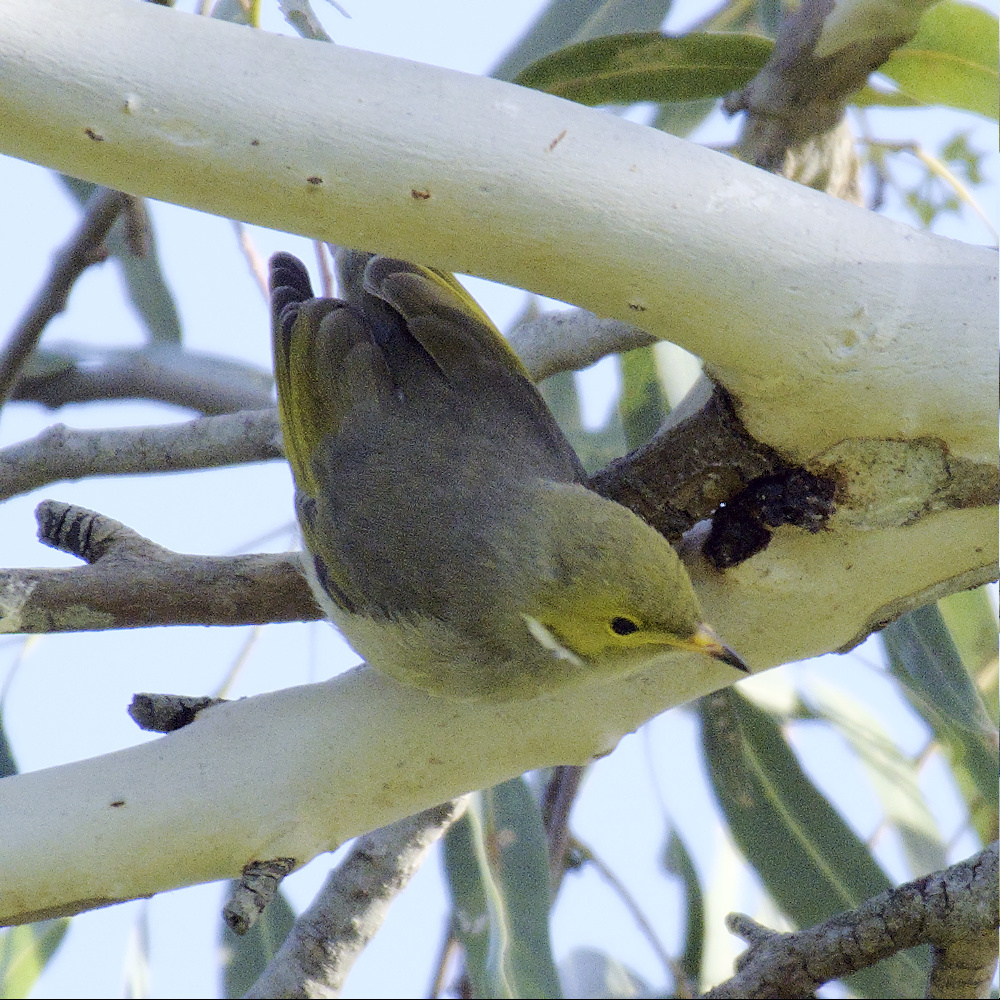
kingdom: Animalia
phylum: Chordata
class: Aves
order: Passeriformes
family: Meliphagidae
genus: Ptilotula
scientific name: Ptilotula penicillata
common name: White-plumed honeyeater
